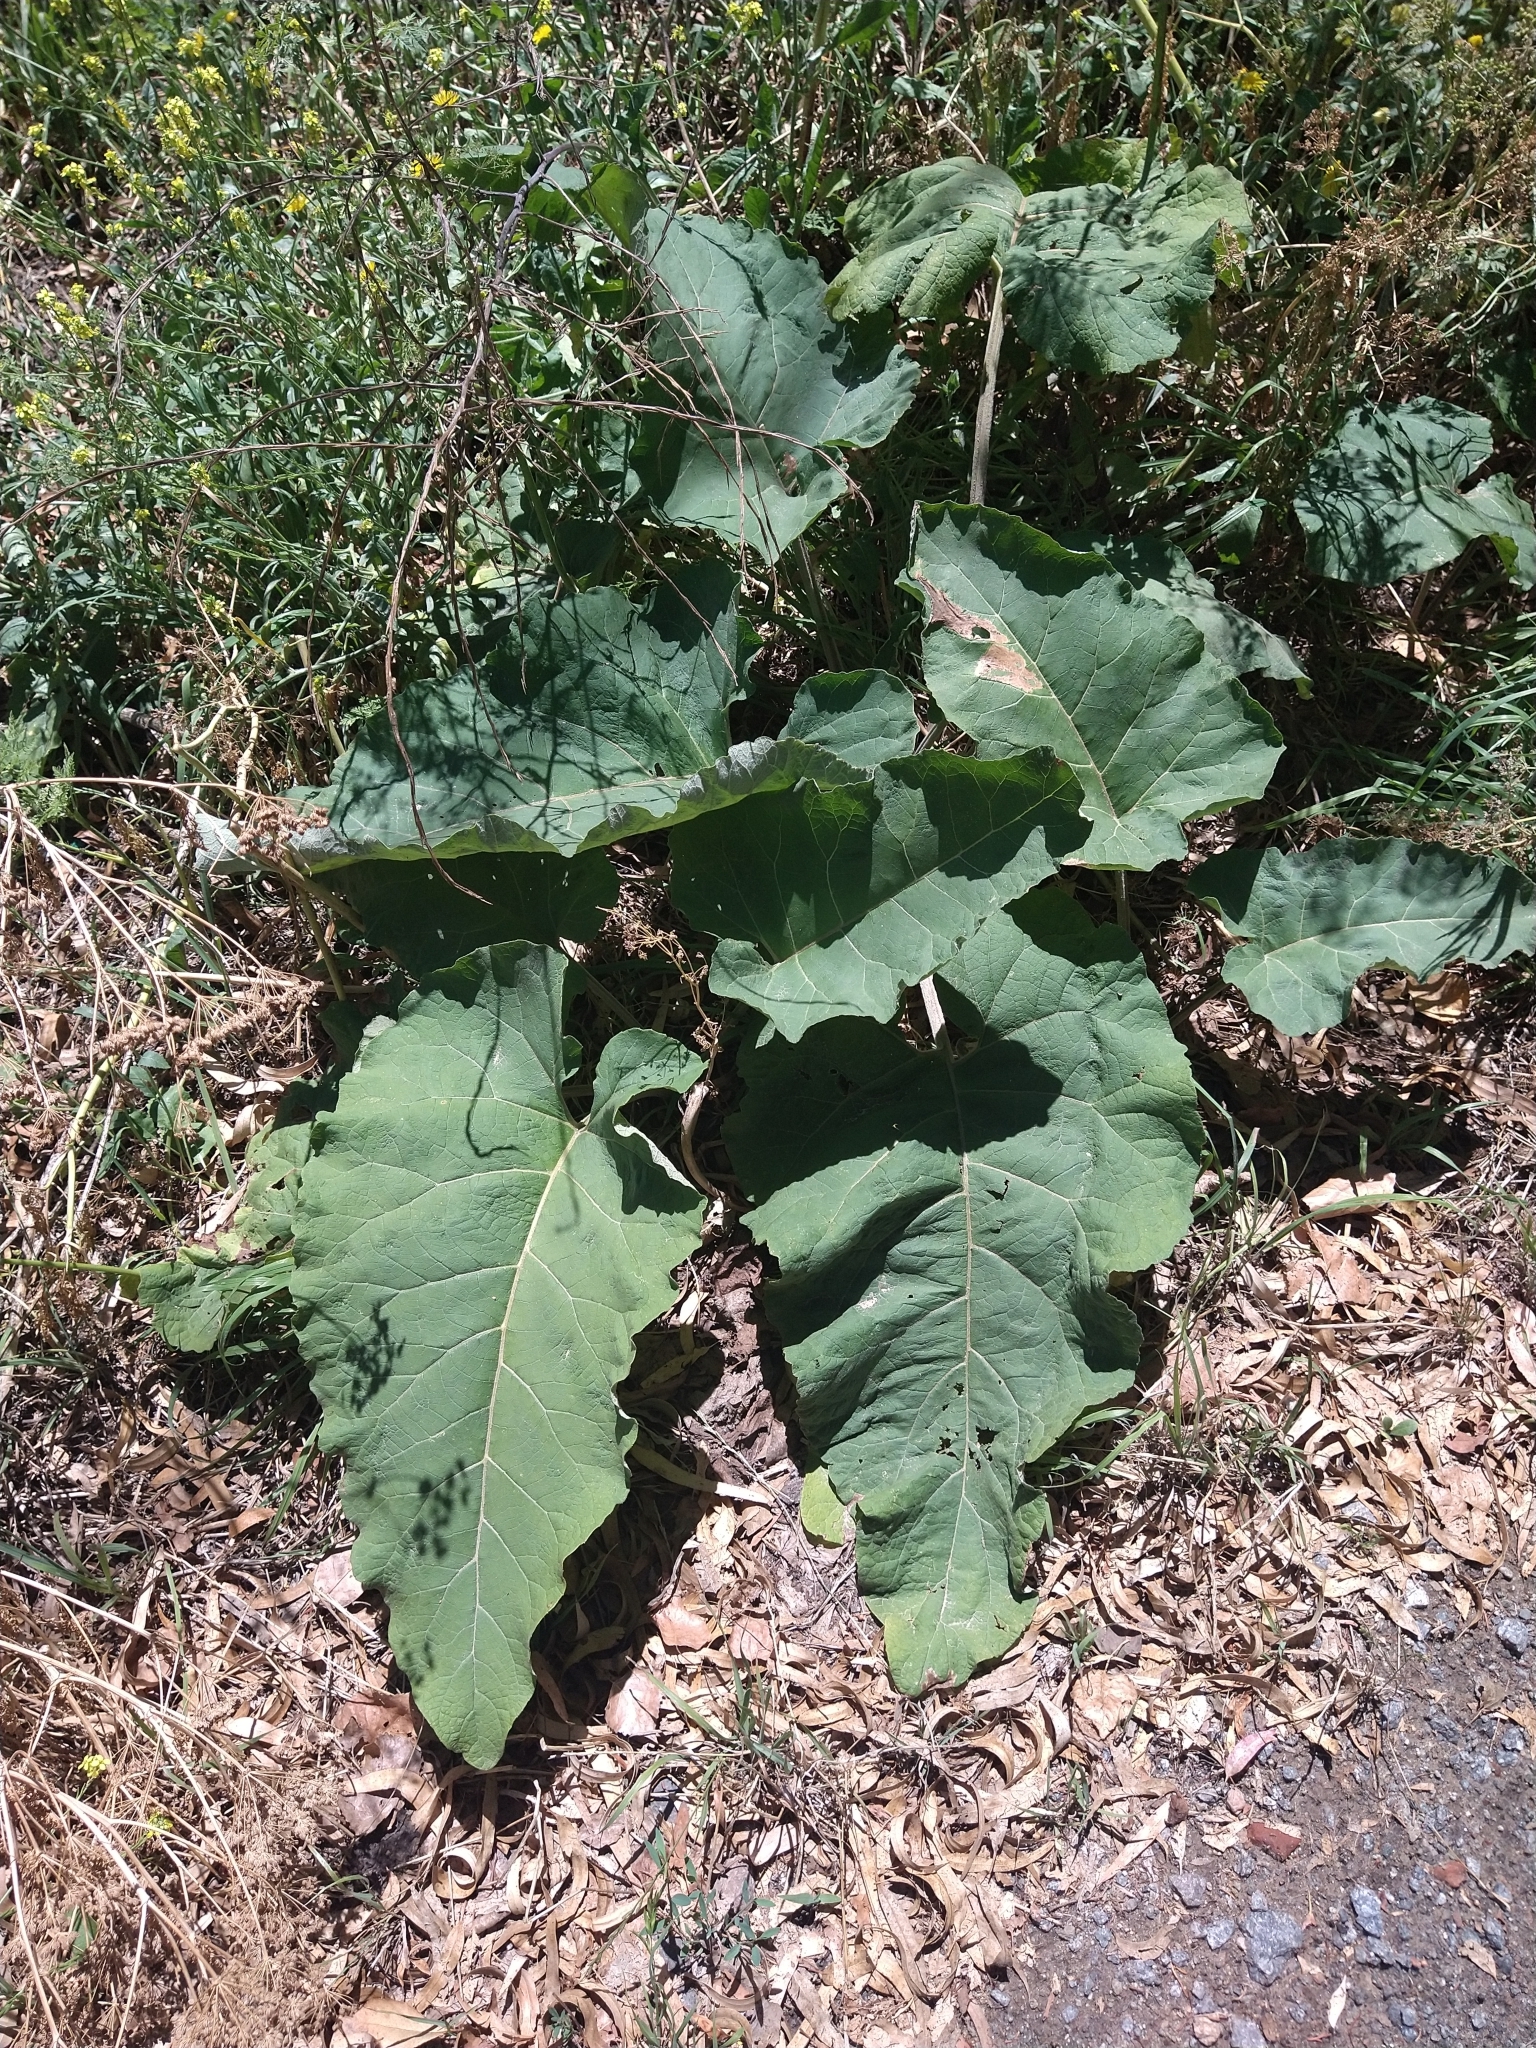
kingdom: Plantae
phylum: Tracheophyta
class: Magnoliopsida
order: Asterales
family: Asteraceae
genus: Arctium
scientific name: Arctium minus
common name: Lesser burdock
